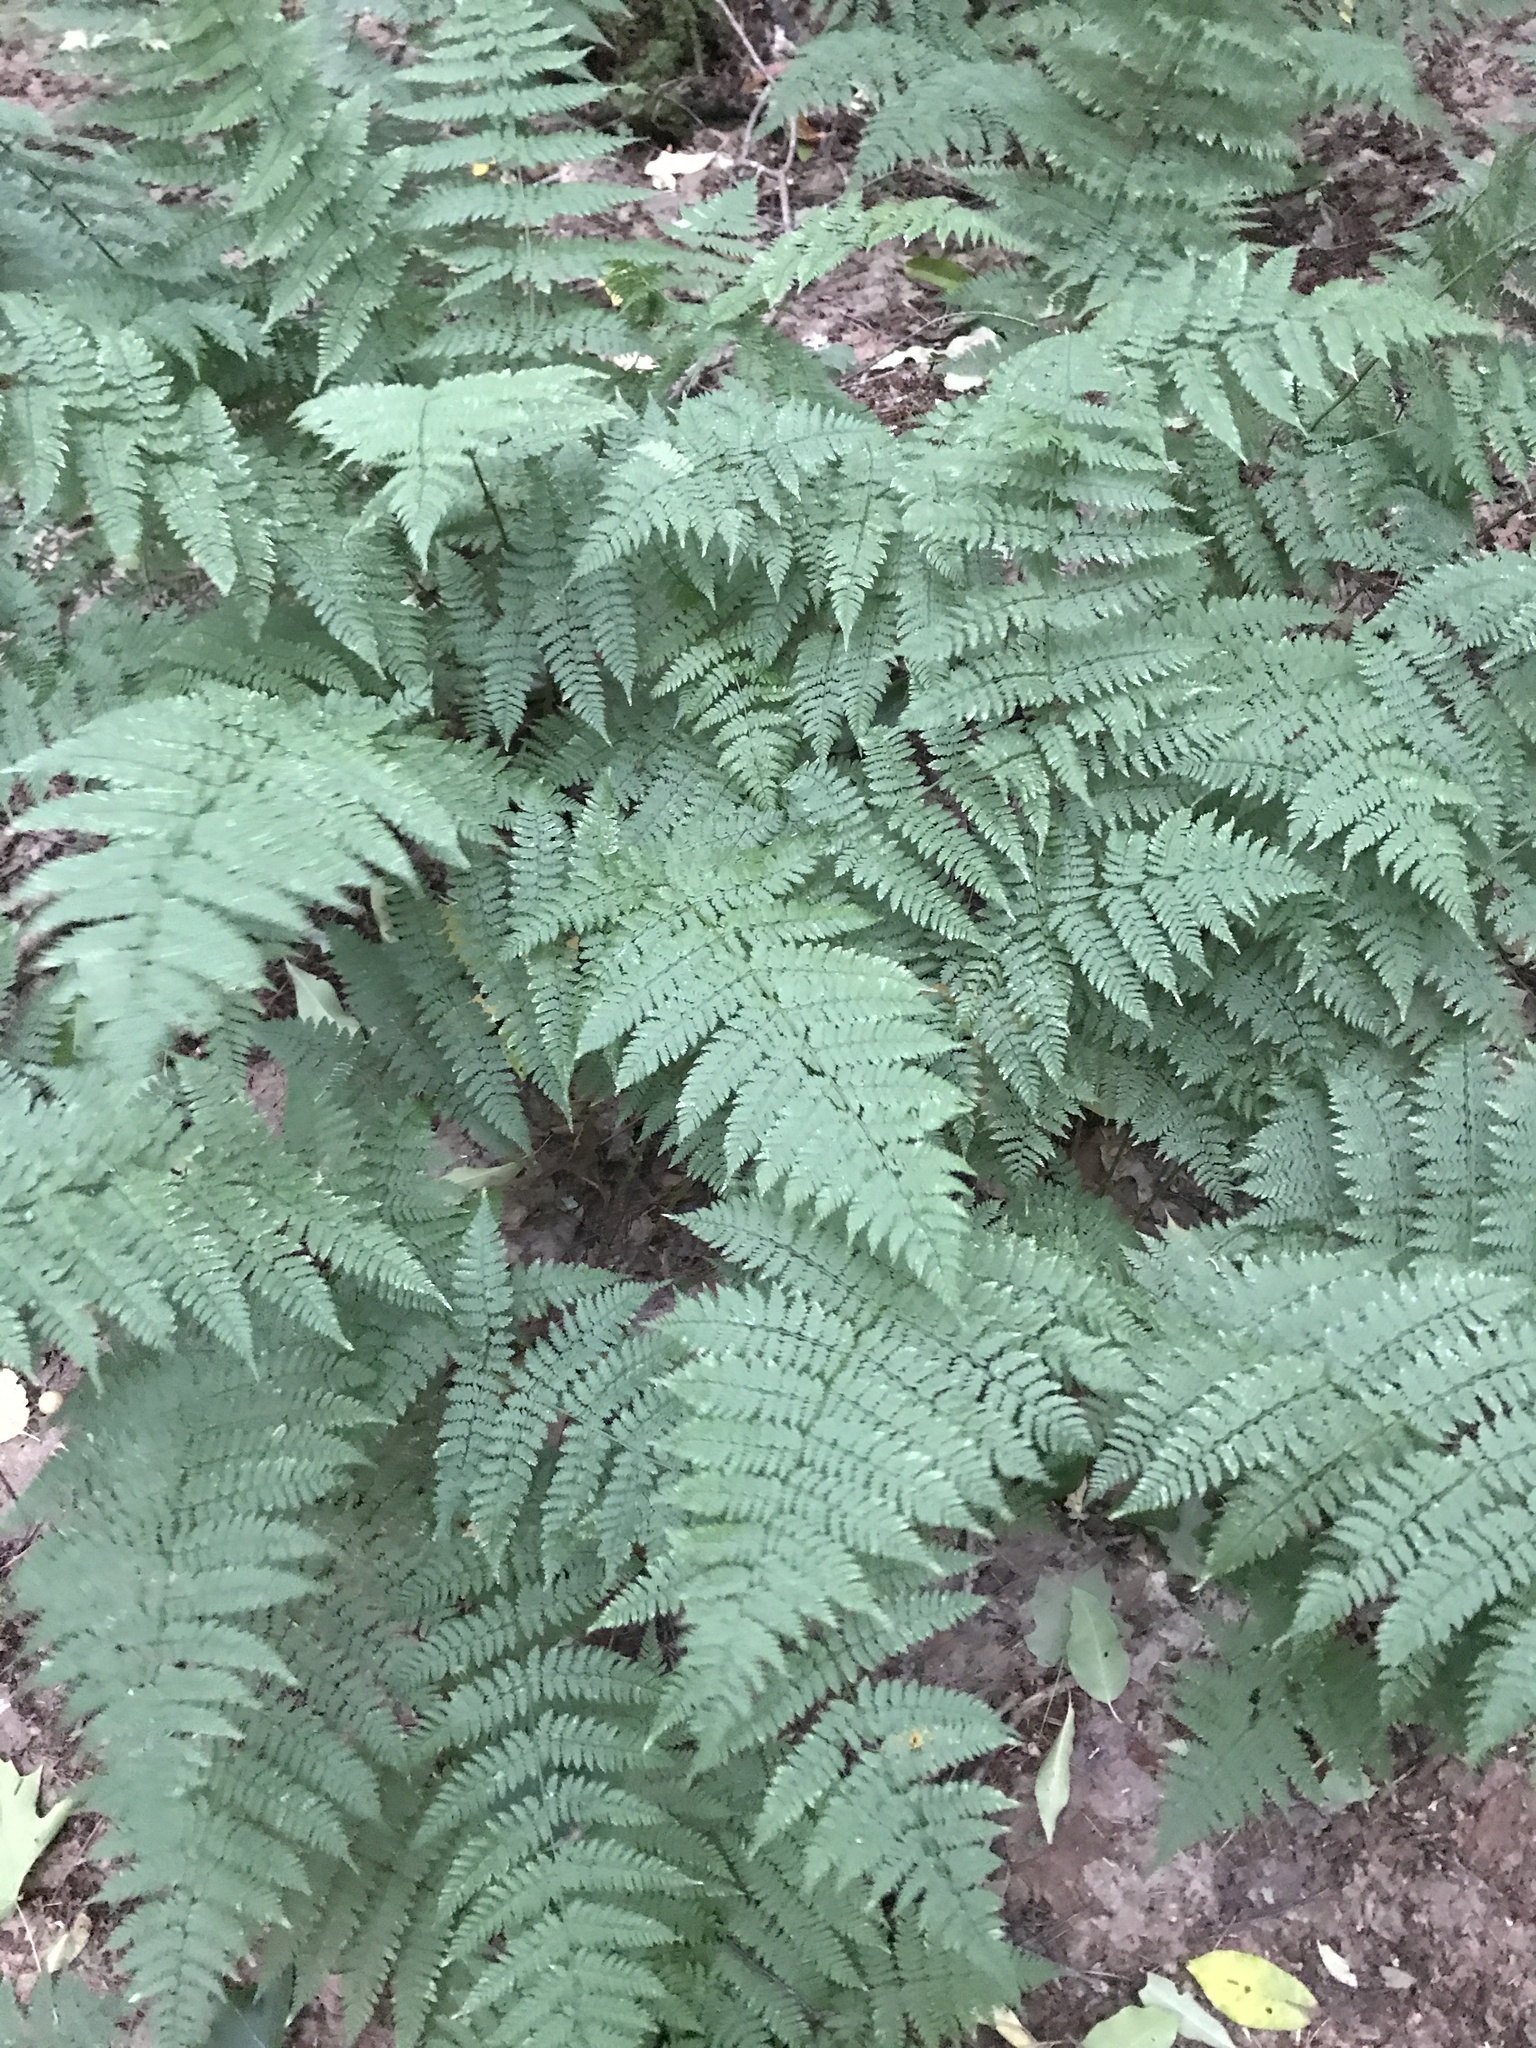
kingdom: Plantae
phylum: Tracheophyta
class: Polypodiopsida
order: Polypodiales
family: Dryopteridaceae
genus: Dryopteris
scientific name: Dryopteris intermedia
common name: Evergreen wood fern
